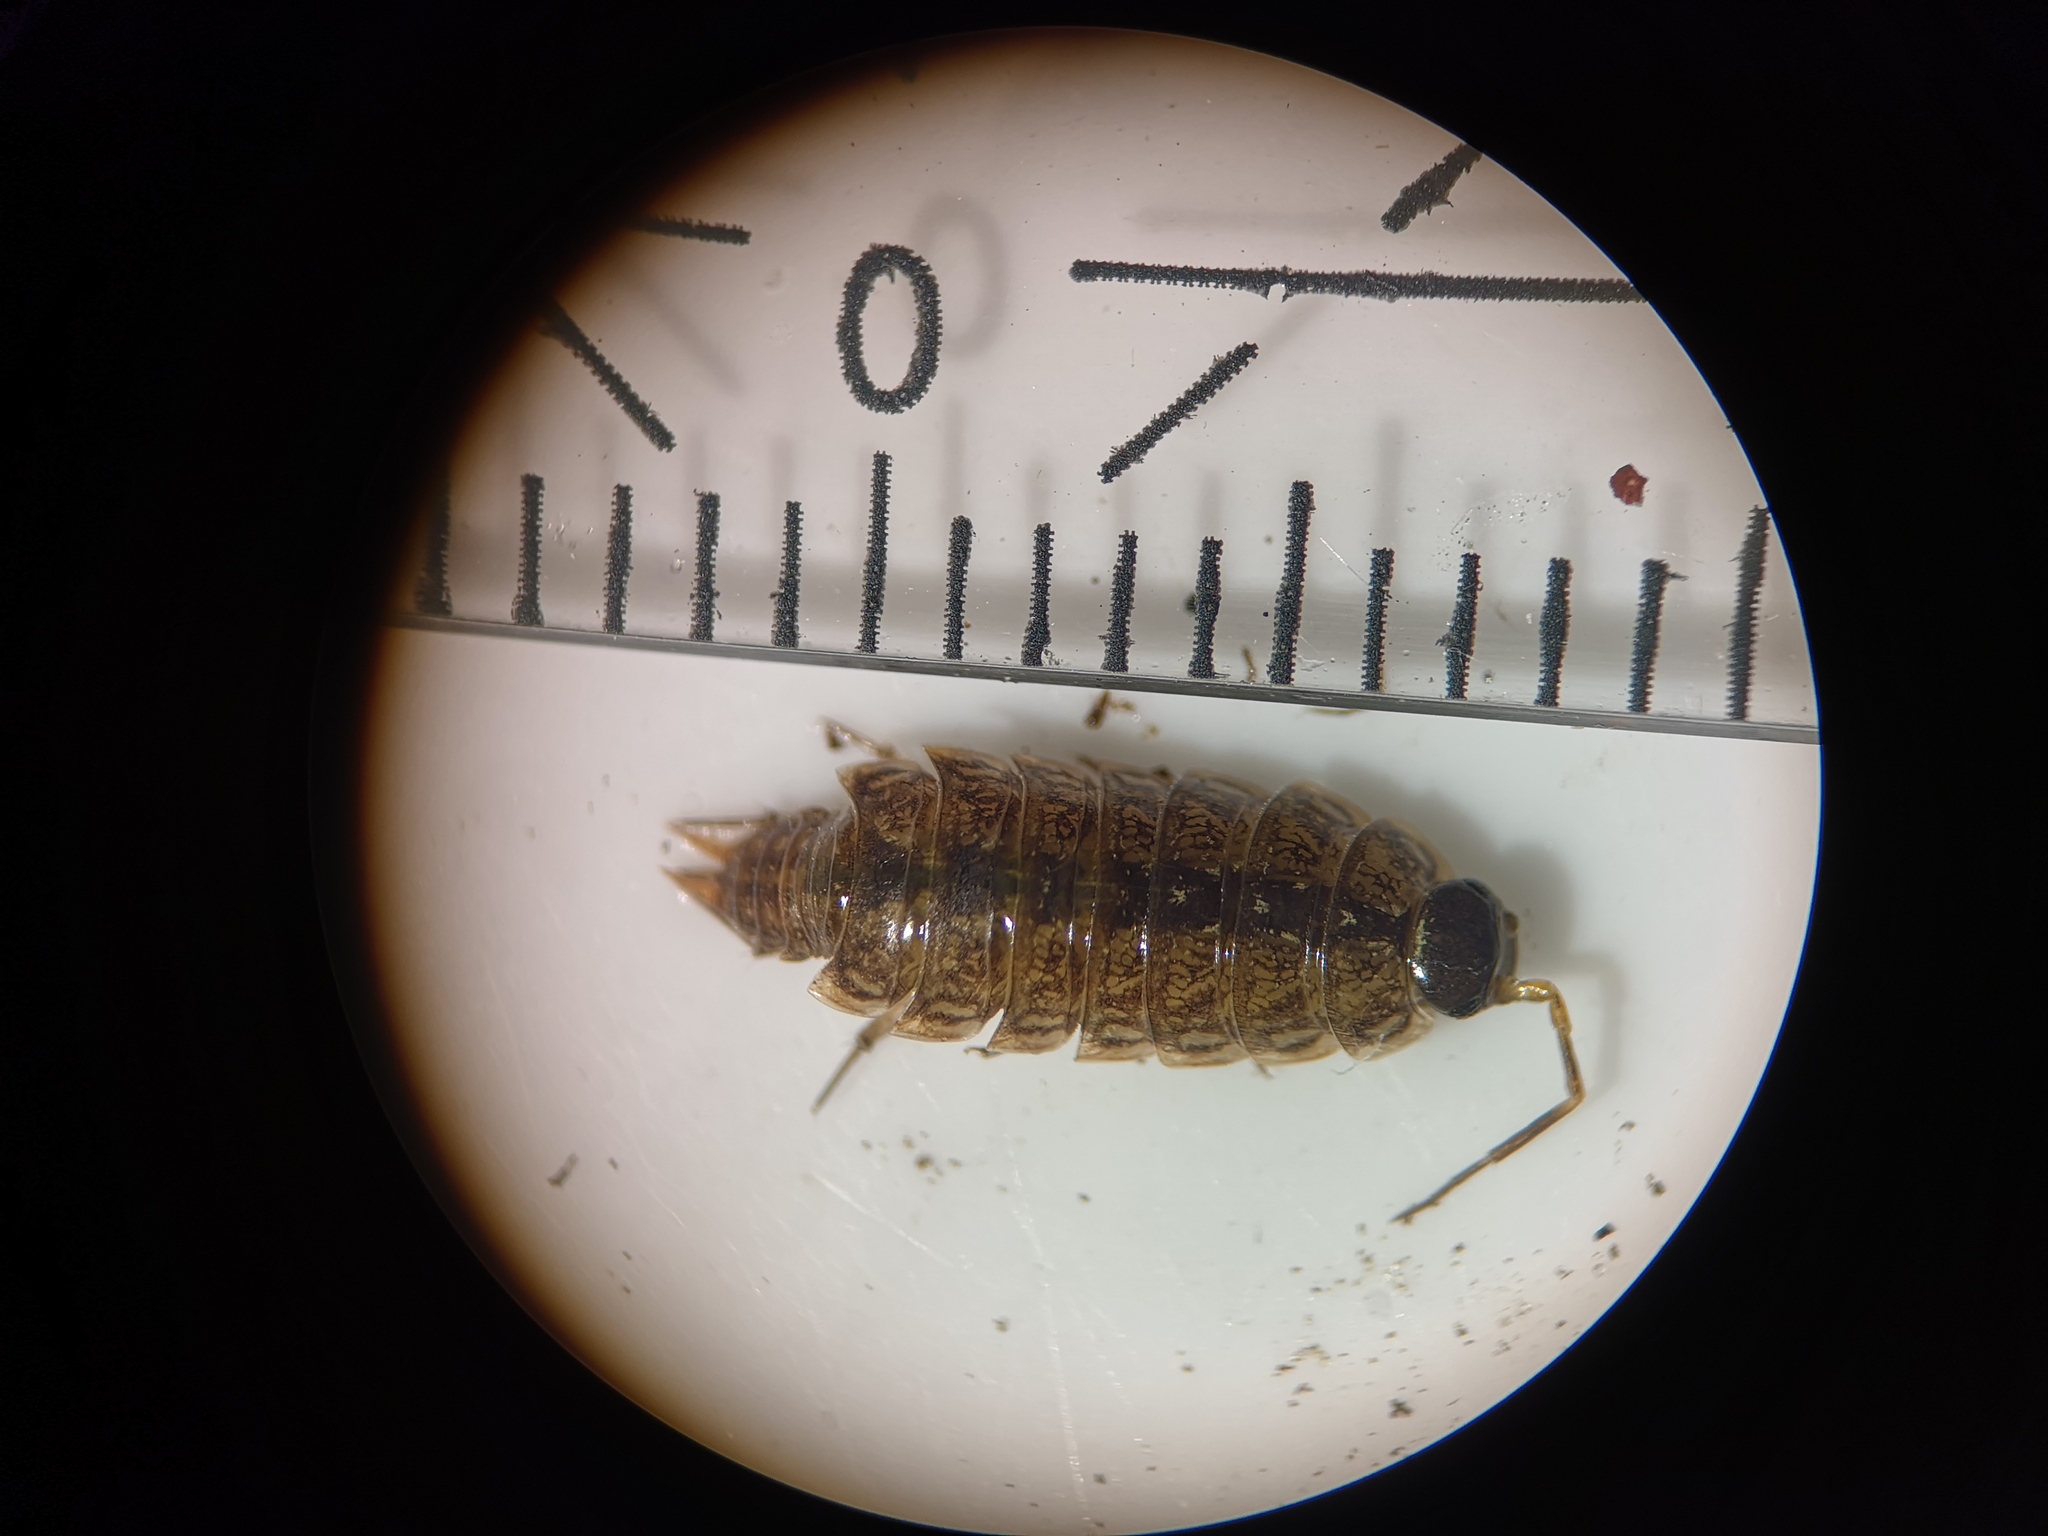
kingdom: Animalia
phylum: Arthropoda
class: Malacostraca
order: Isopoda
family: Philosciidae
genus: Philoscia
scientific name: Philoscia muscorum
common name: Common striped woodlouse
